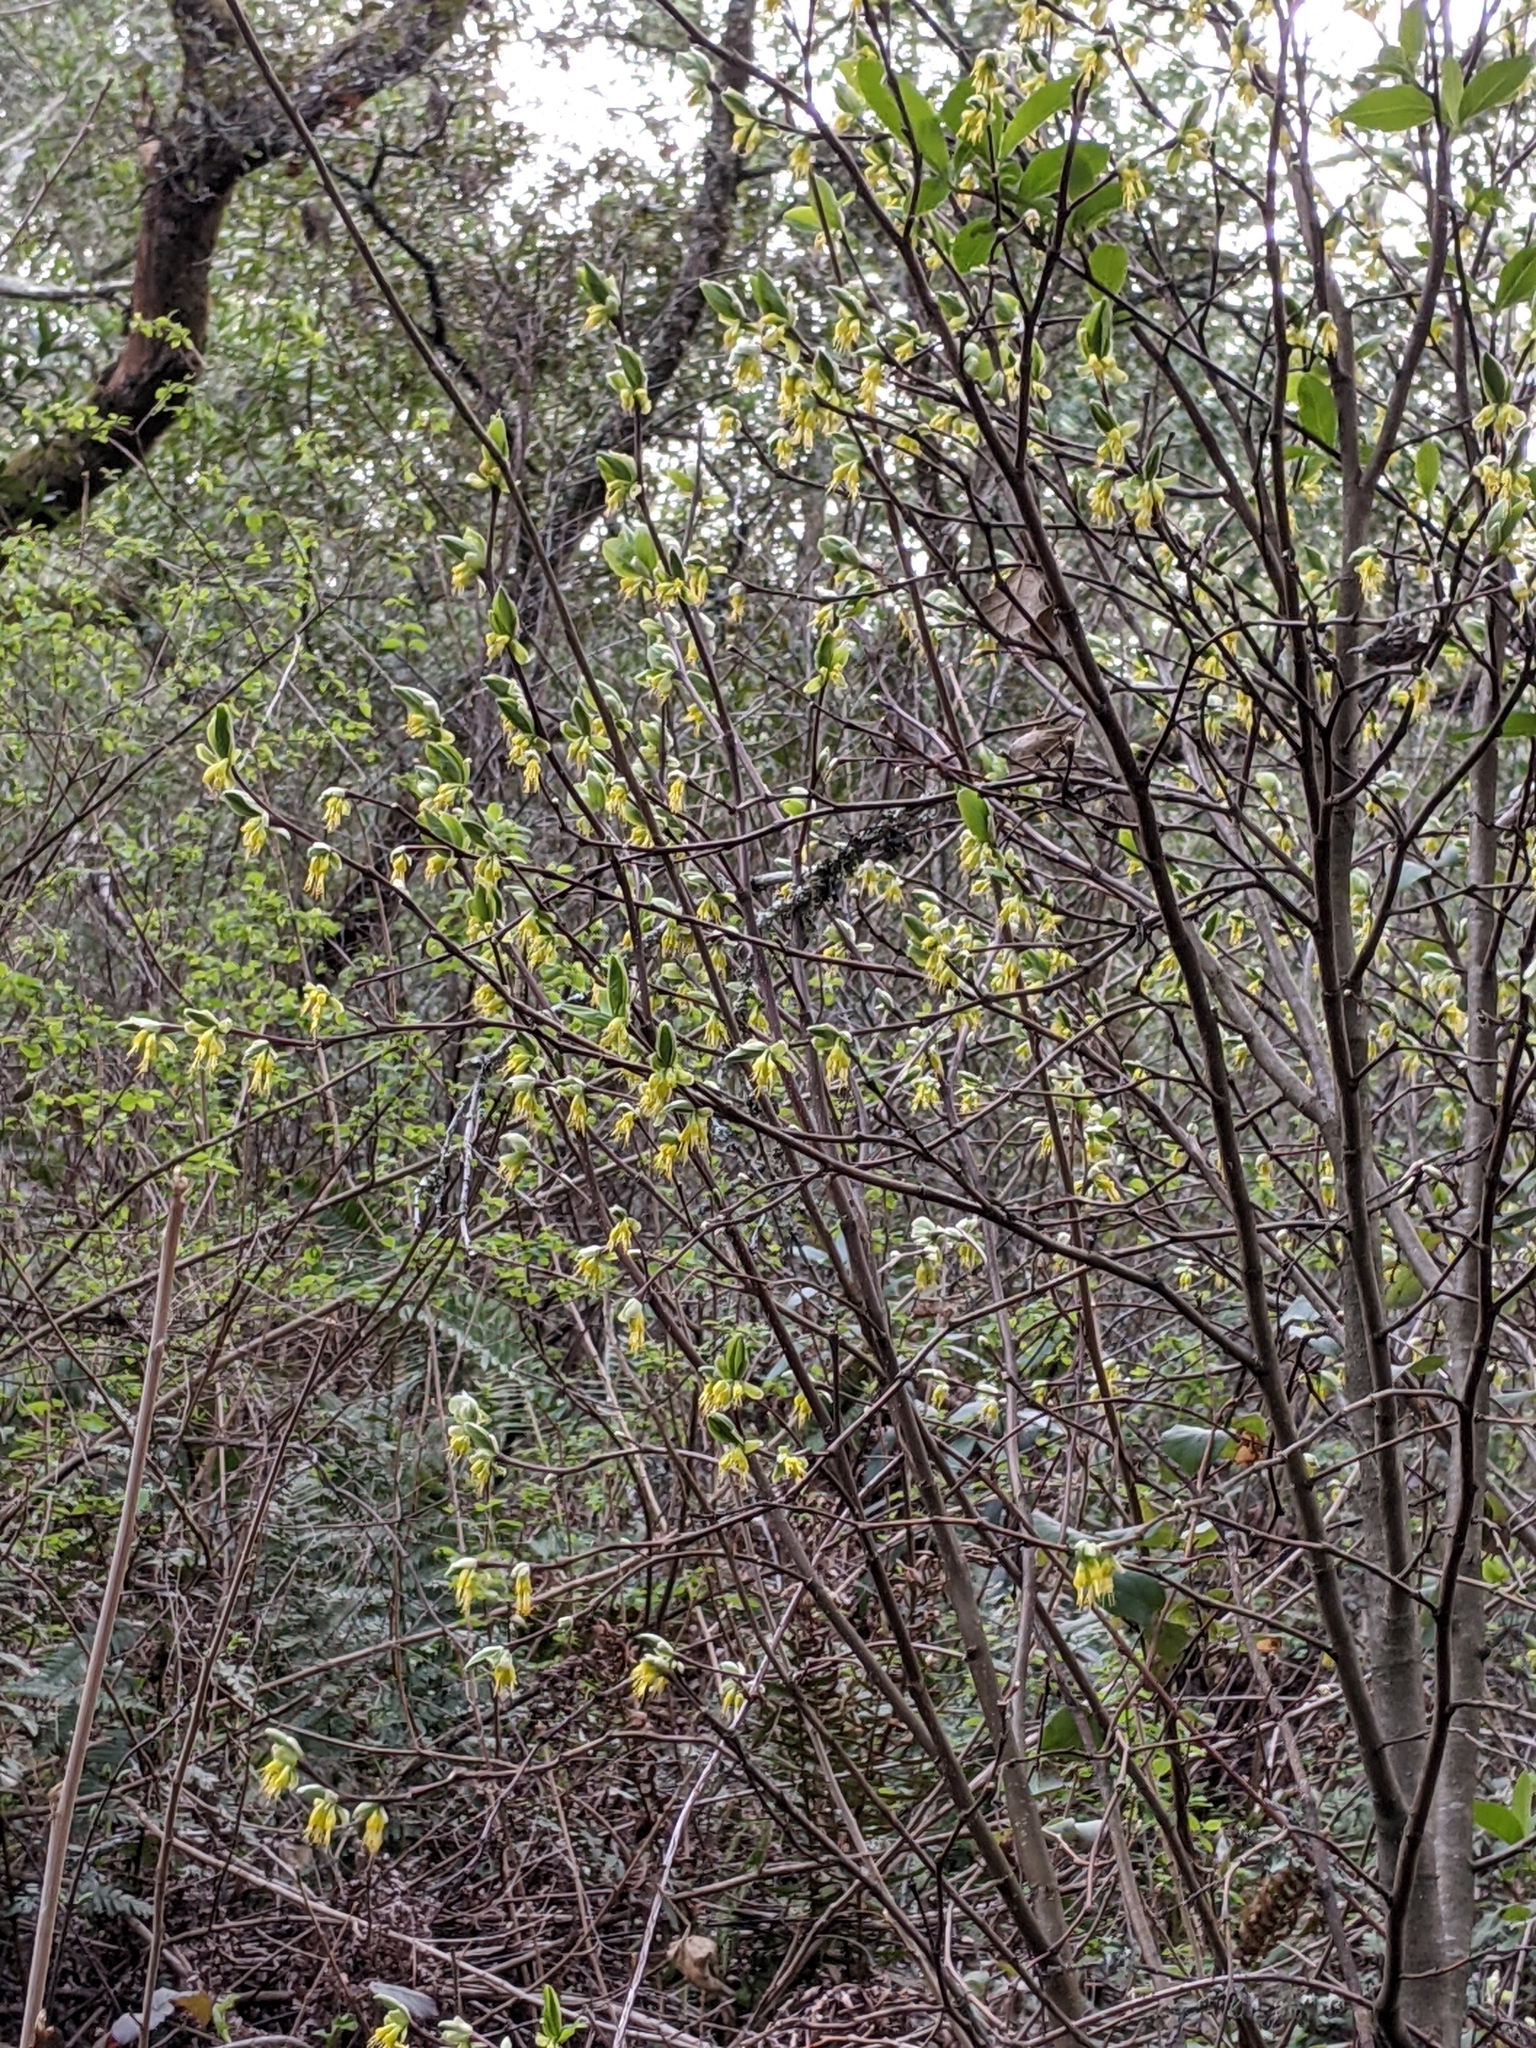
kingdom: Plantae
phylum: Tracheophyta
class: Magnoliopsida
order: Malvales
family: Thymelaeaceae
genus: Dirca
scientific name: Dirca occidentalis
